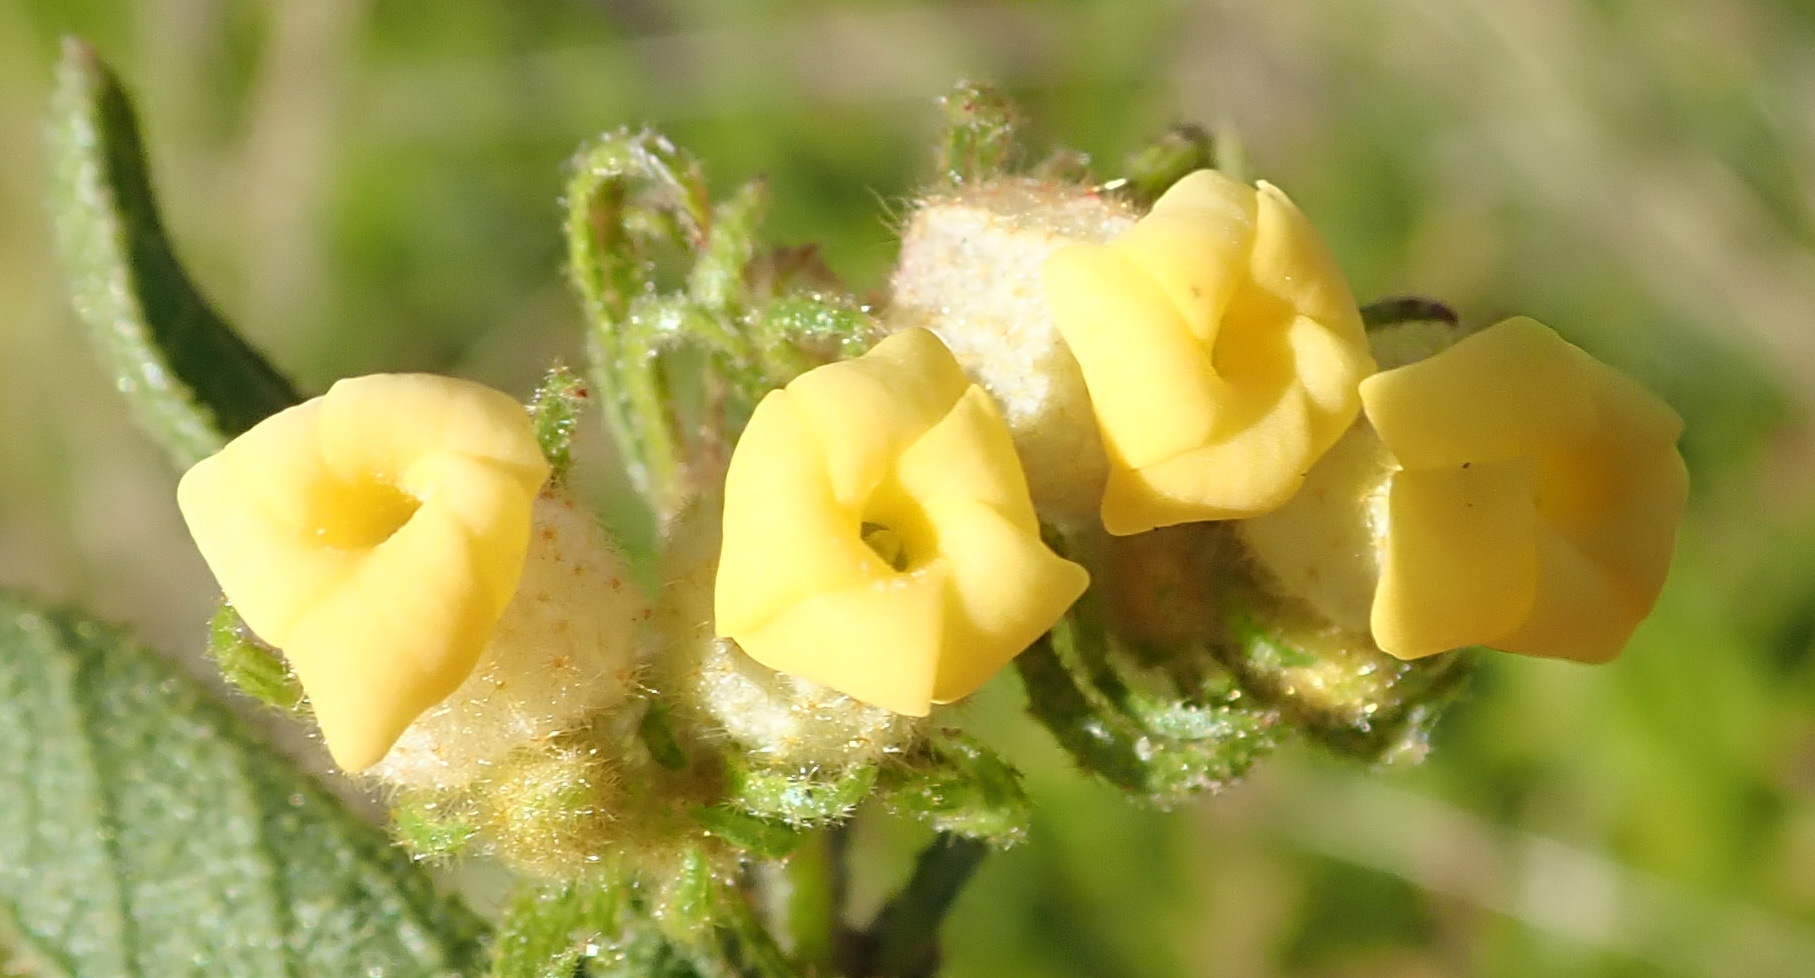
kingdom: Plantae
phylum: Tracheophyta
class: Magnoliopsida
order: Malvales
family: Malvaceae
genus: Hermannia
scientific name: Hermannia salviifolia
